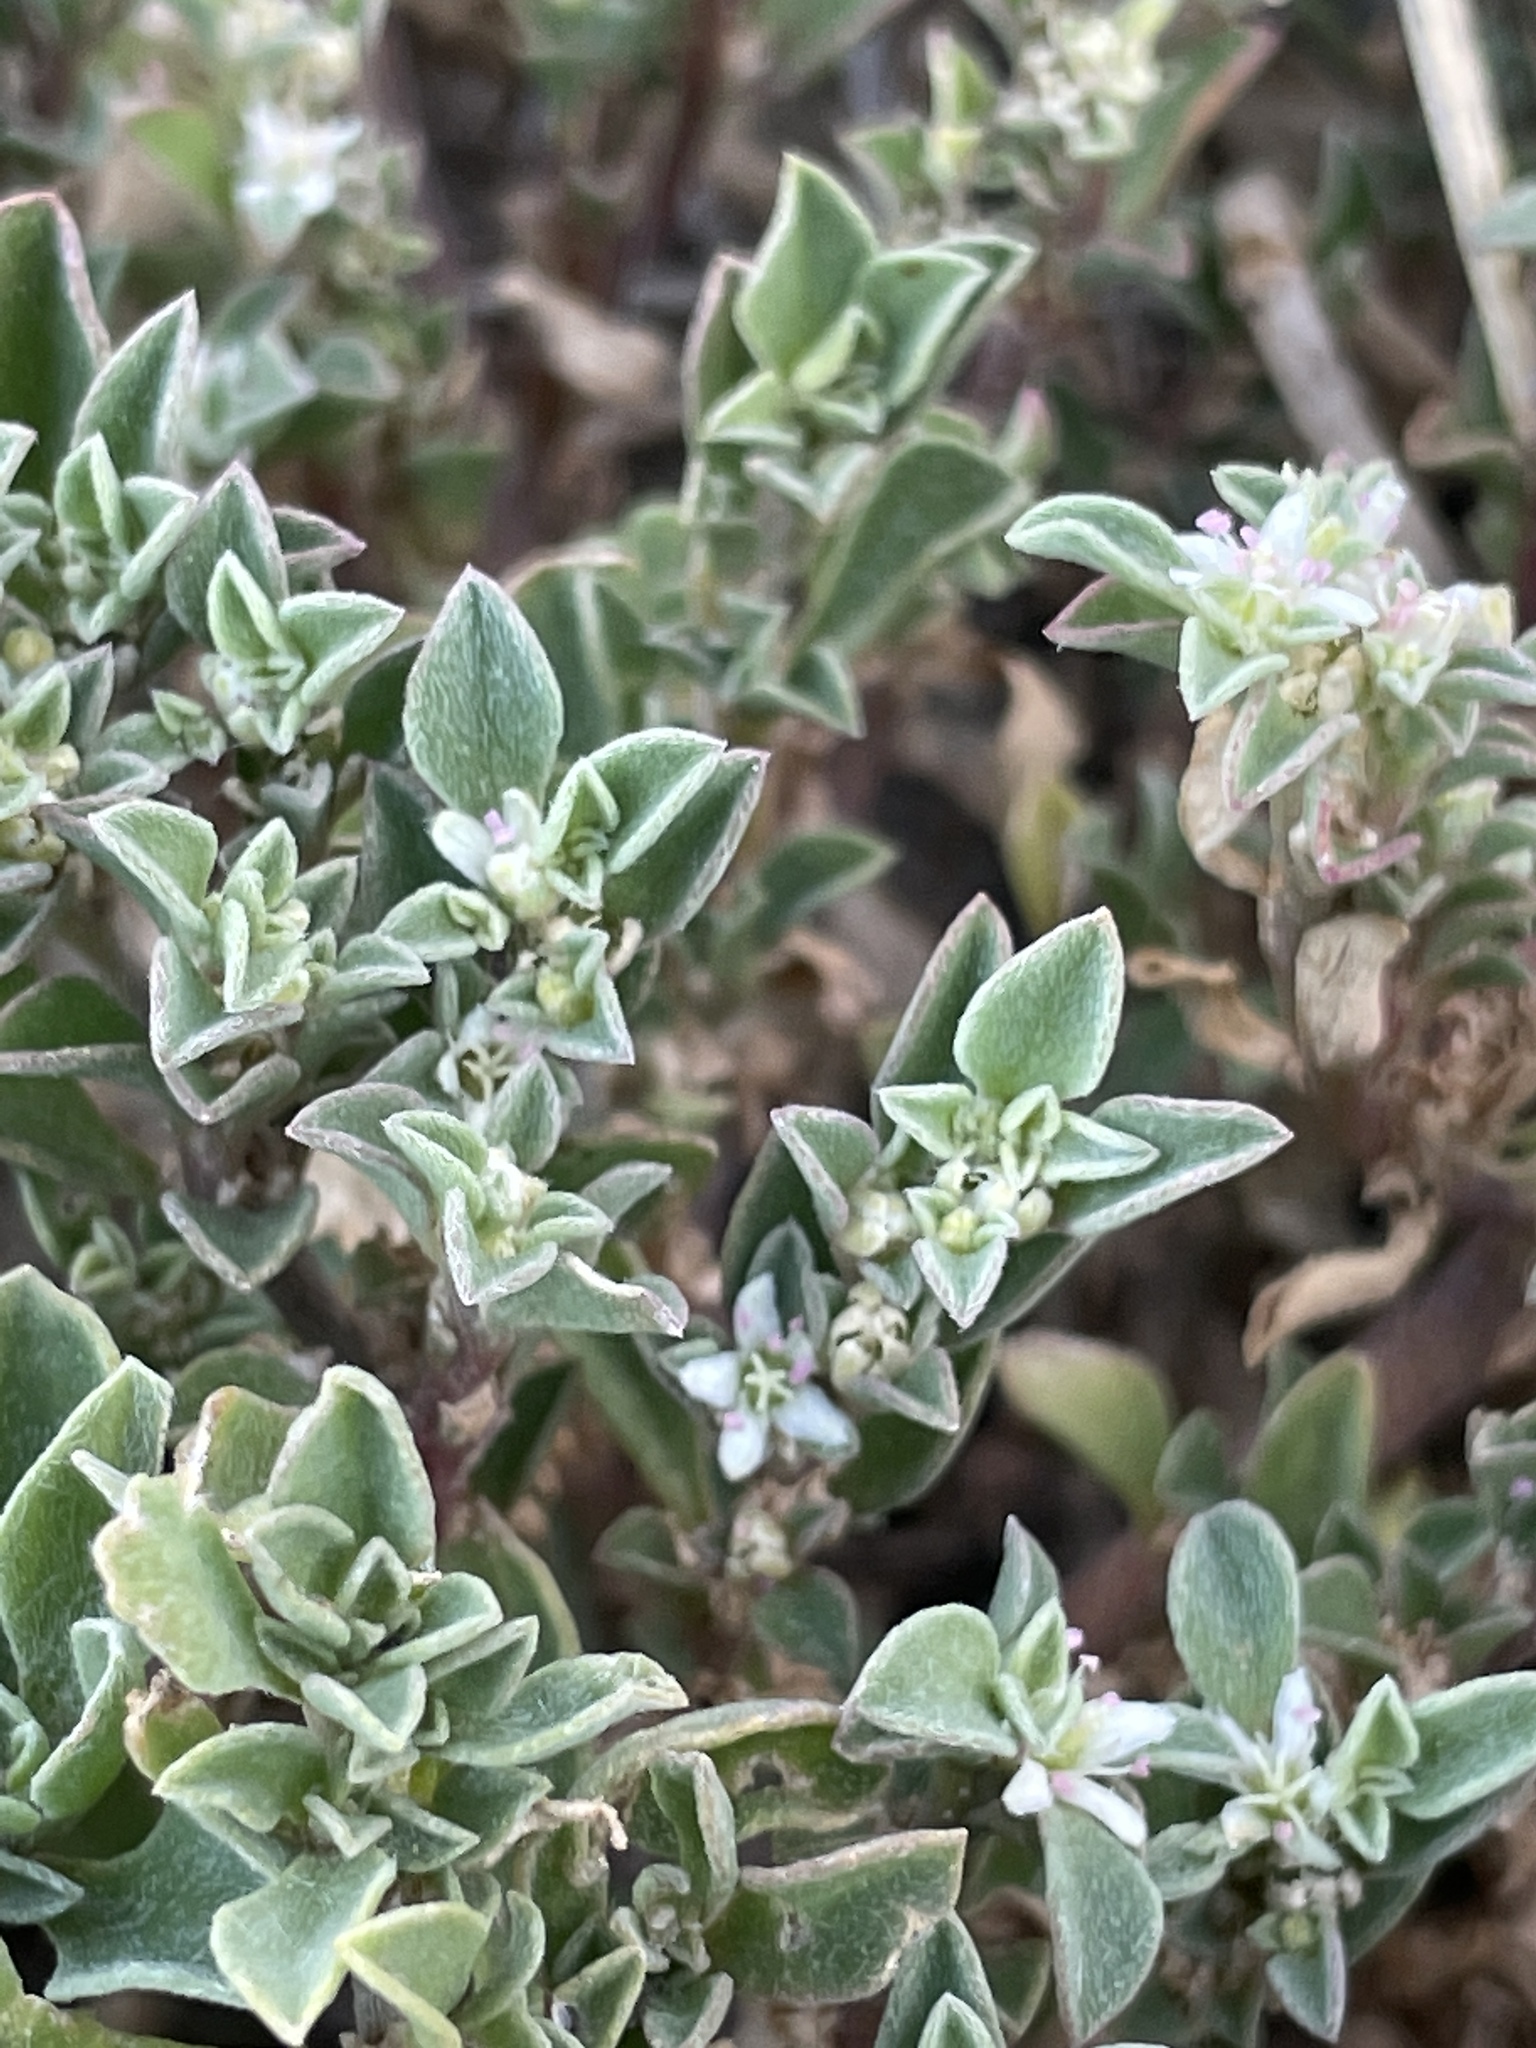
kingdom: Plantae
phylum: Tracheophyta
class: Magnoliopsida
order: Caryophyllales
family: Aizoaceae
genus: Aizoon
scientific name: Aizoon pubescens
